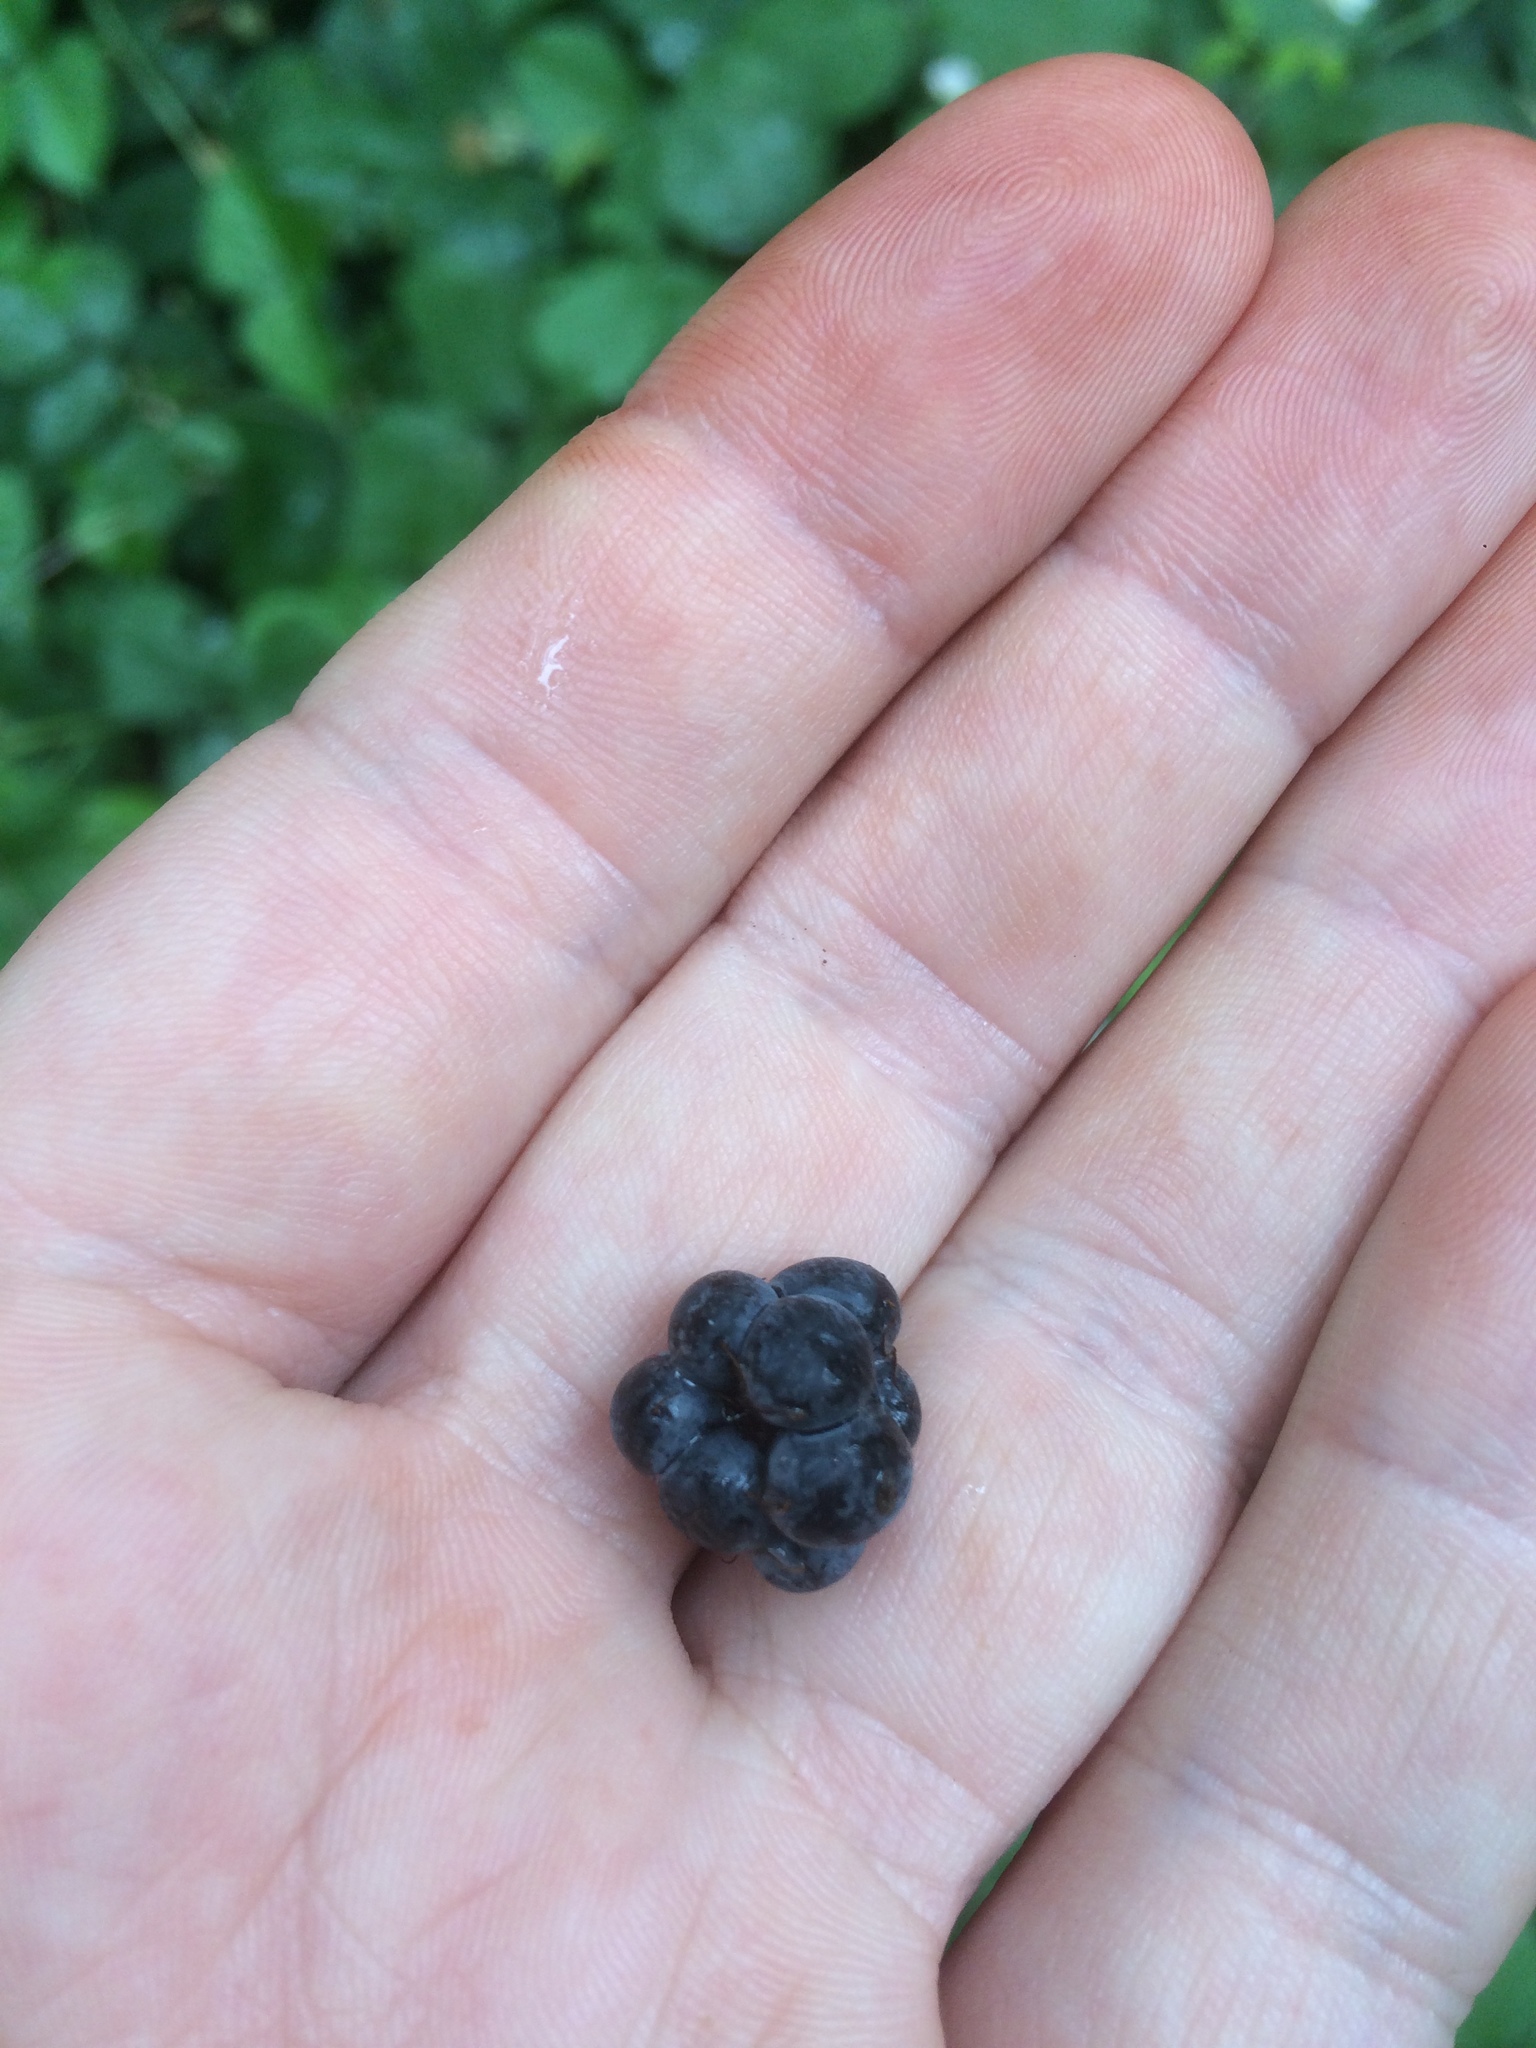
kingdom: Plantae
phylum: Tracheophyta
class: Magnoliopsida
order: Rosales
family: Rosaceae
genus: Rubus
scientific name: Rubus caesius
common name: Dewberry
